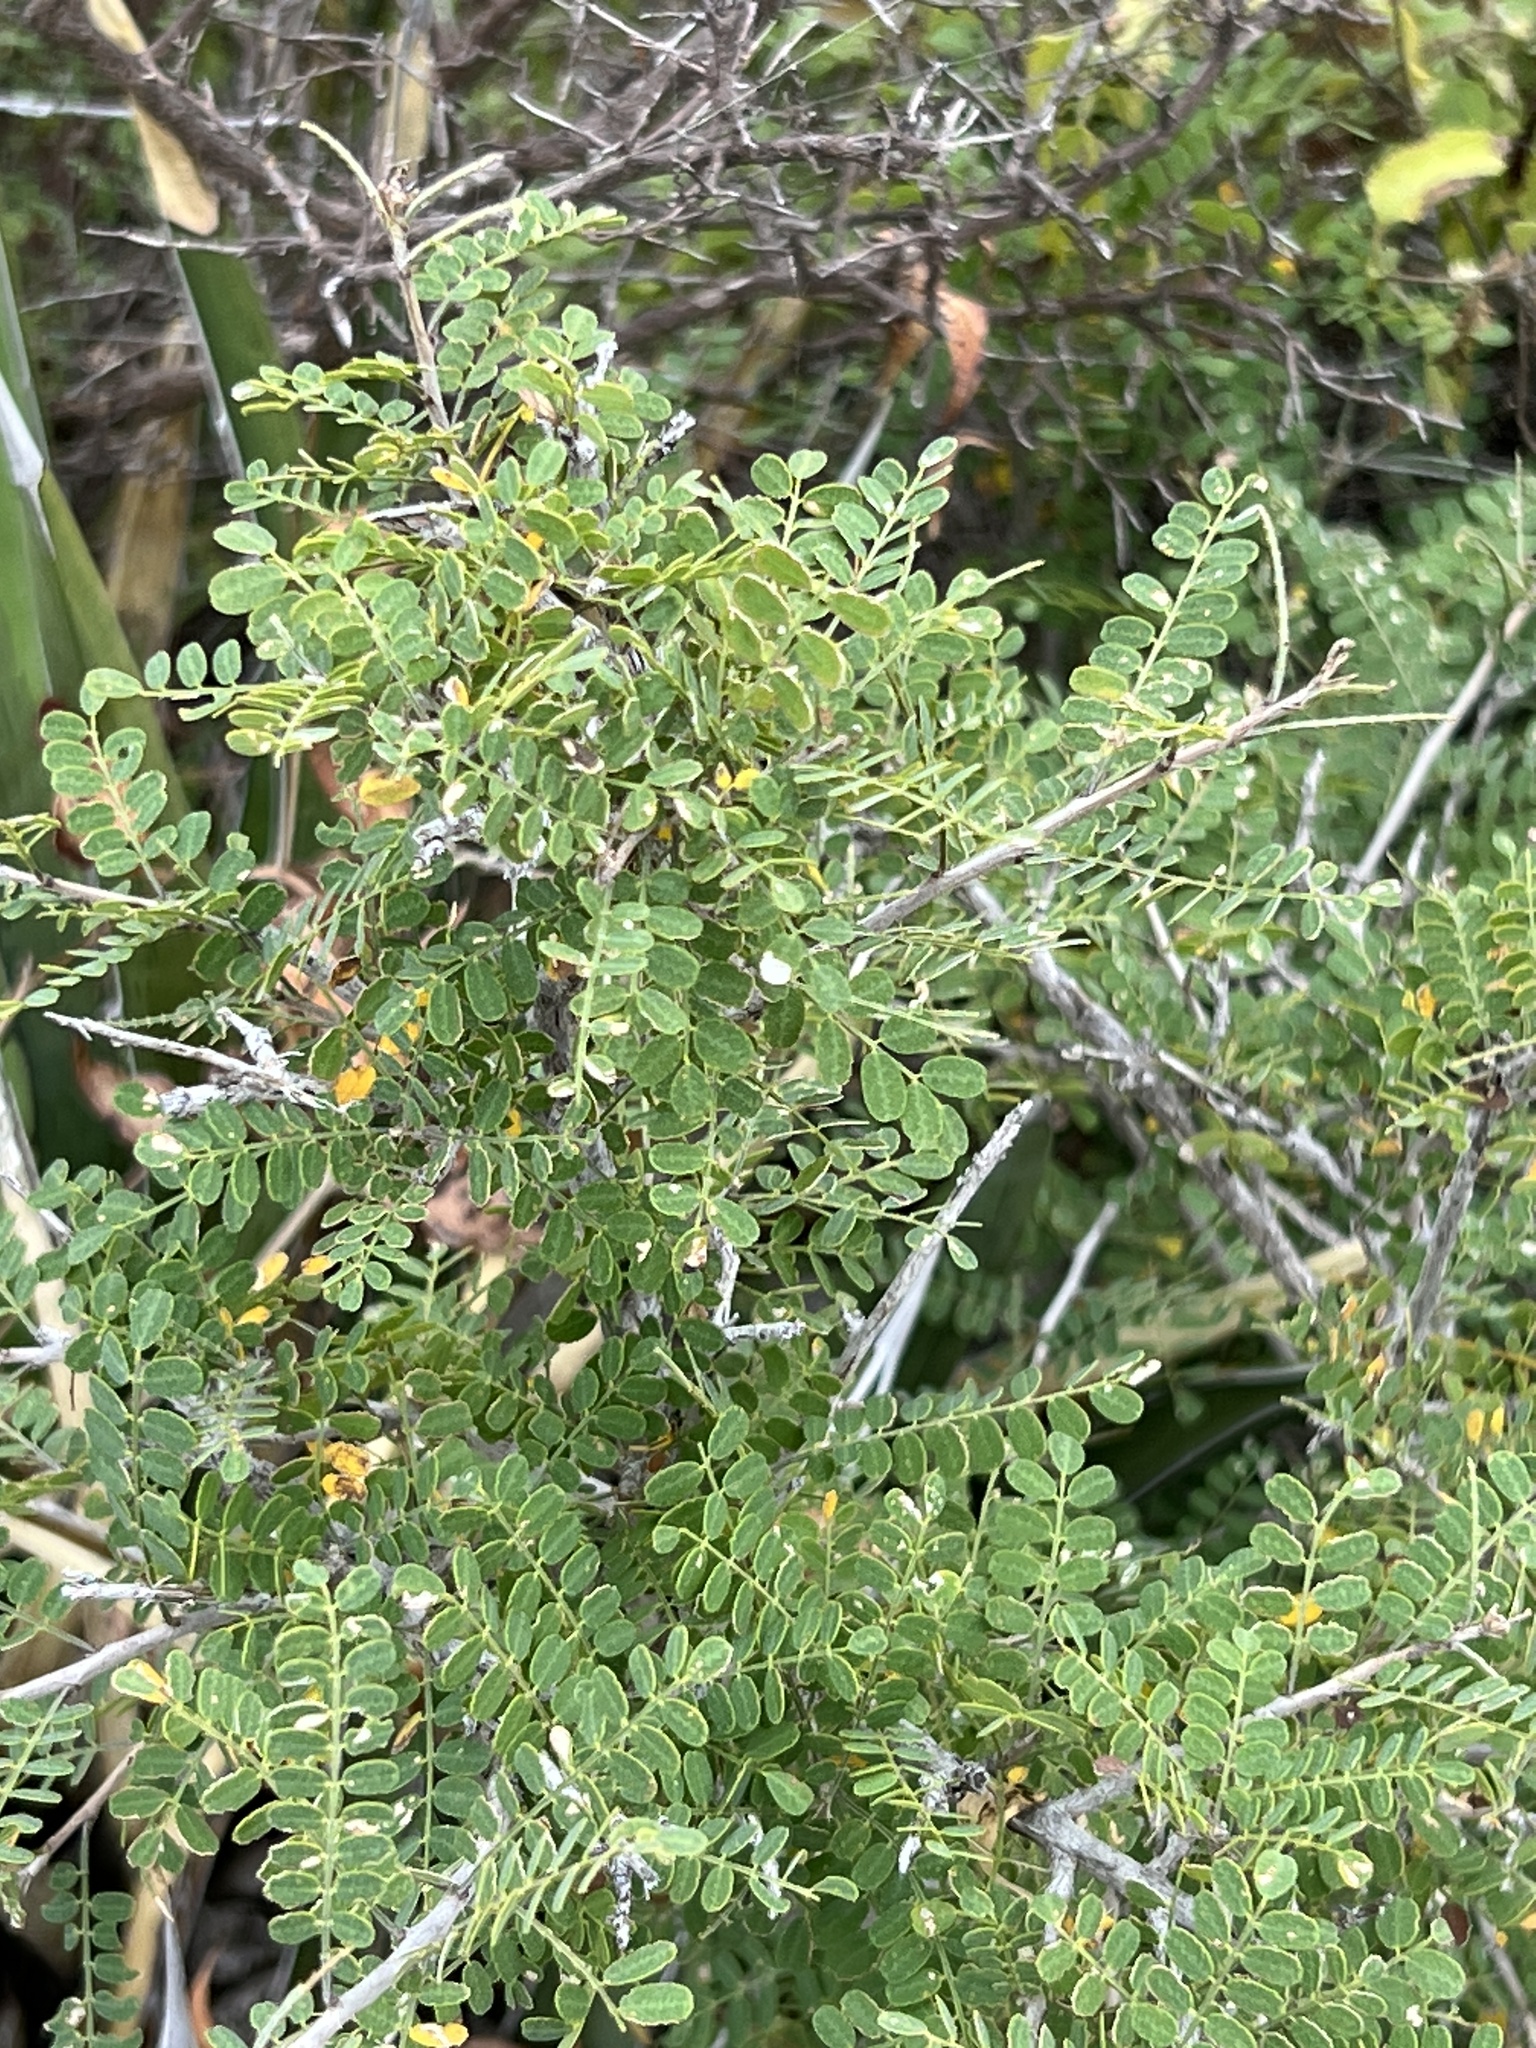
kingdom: Plantae
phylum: Tracheophyta
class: Magnoliopsida
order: Fabales
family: Fabaceae
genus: Eysenhardtia
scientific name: Eysenhardtia texana
